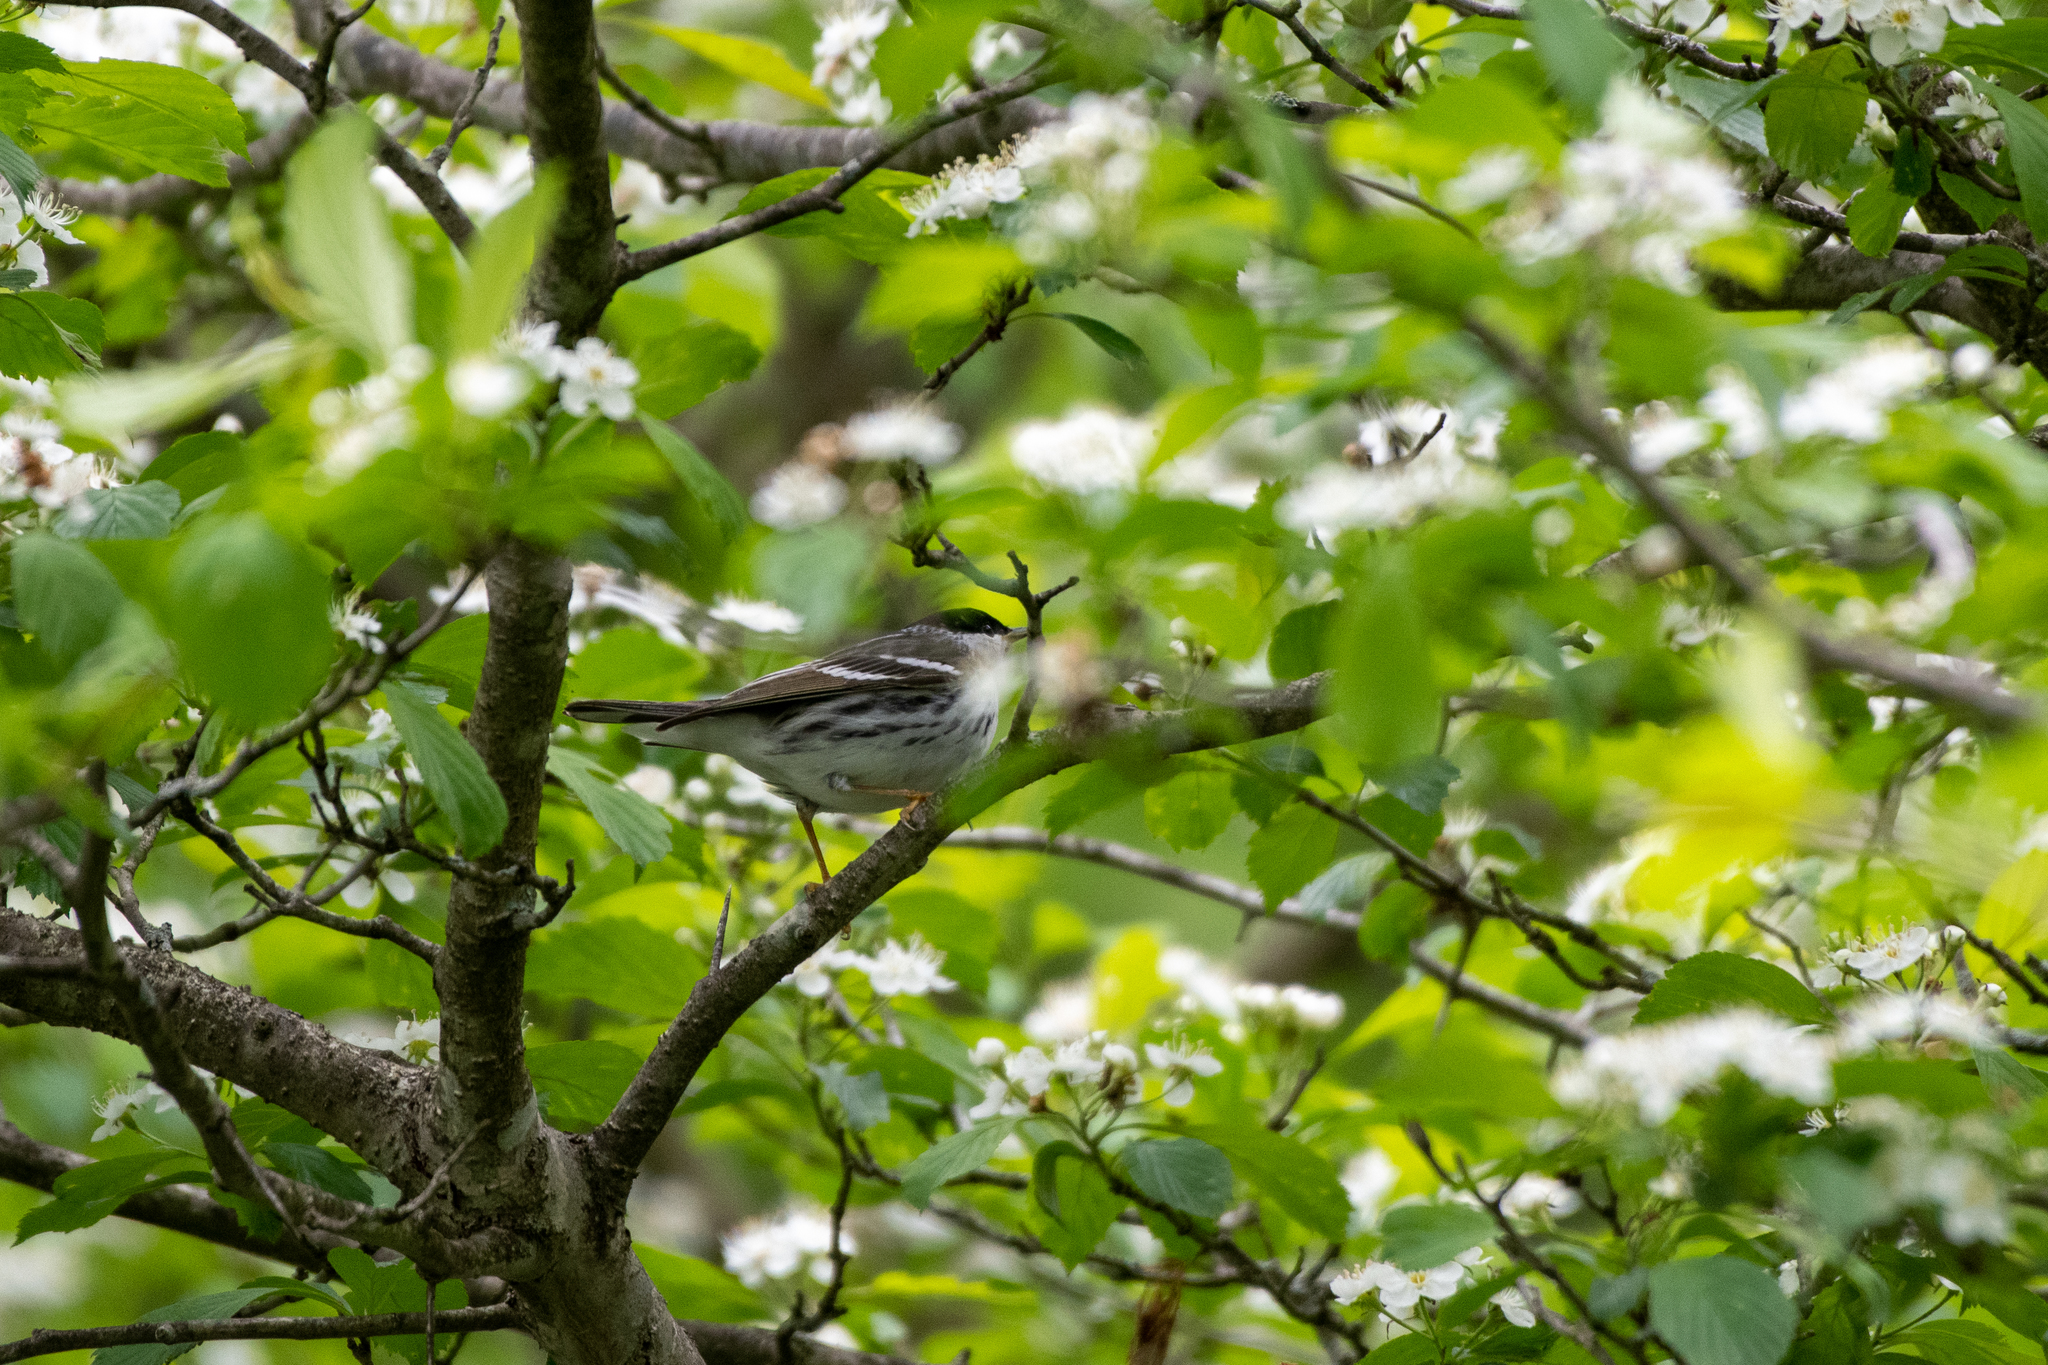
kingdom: Animalia
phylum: Chordata
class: Aves
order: Passeriformes
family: Parulidae
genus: Setophaga
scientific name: Setophaga striata
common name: Blackpoll warbler
